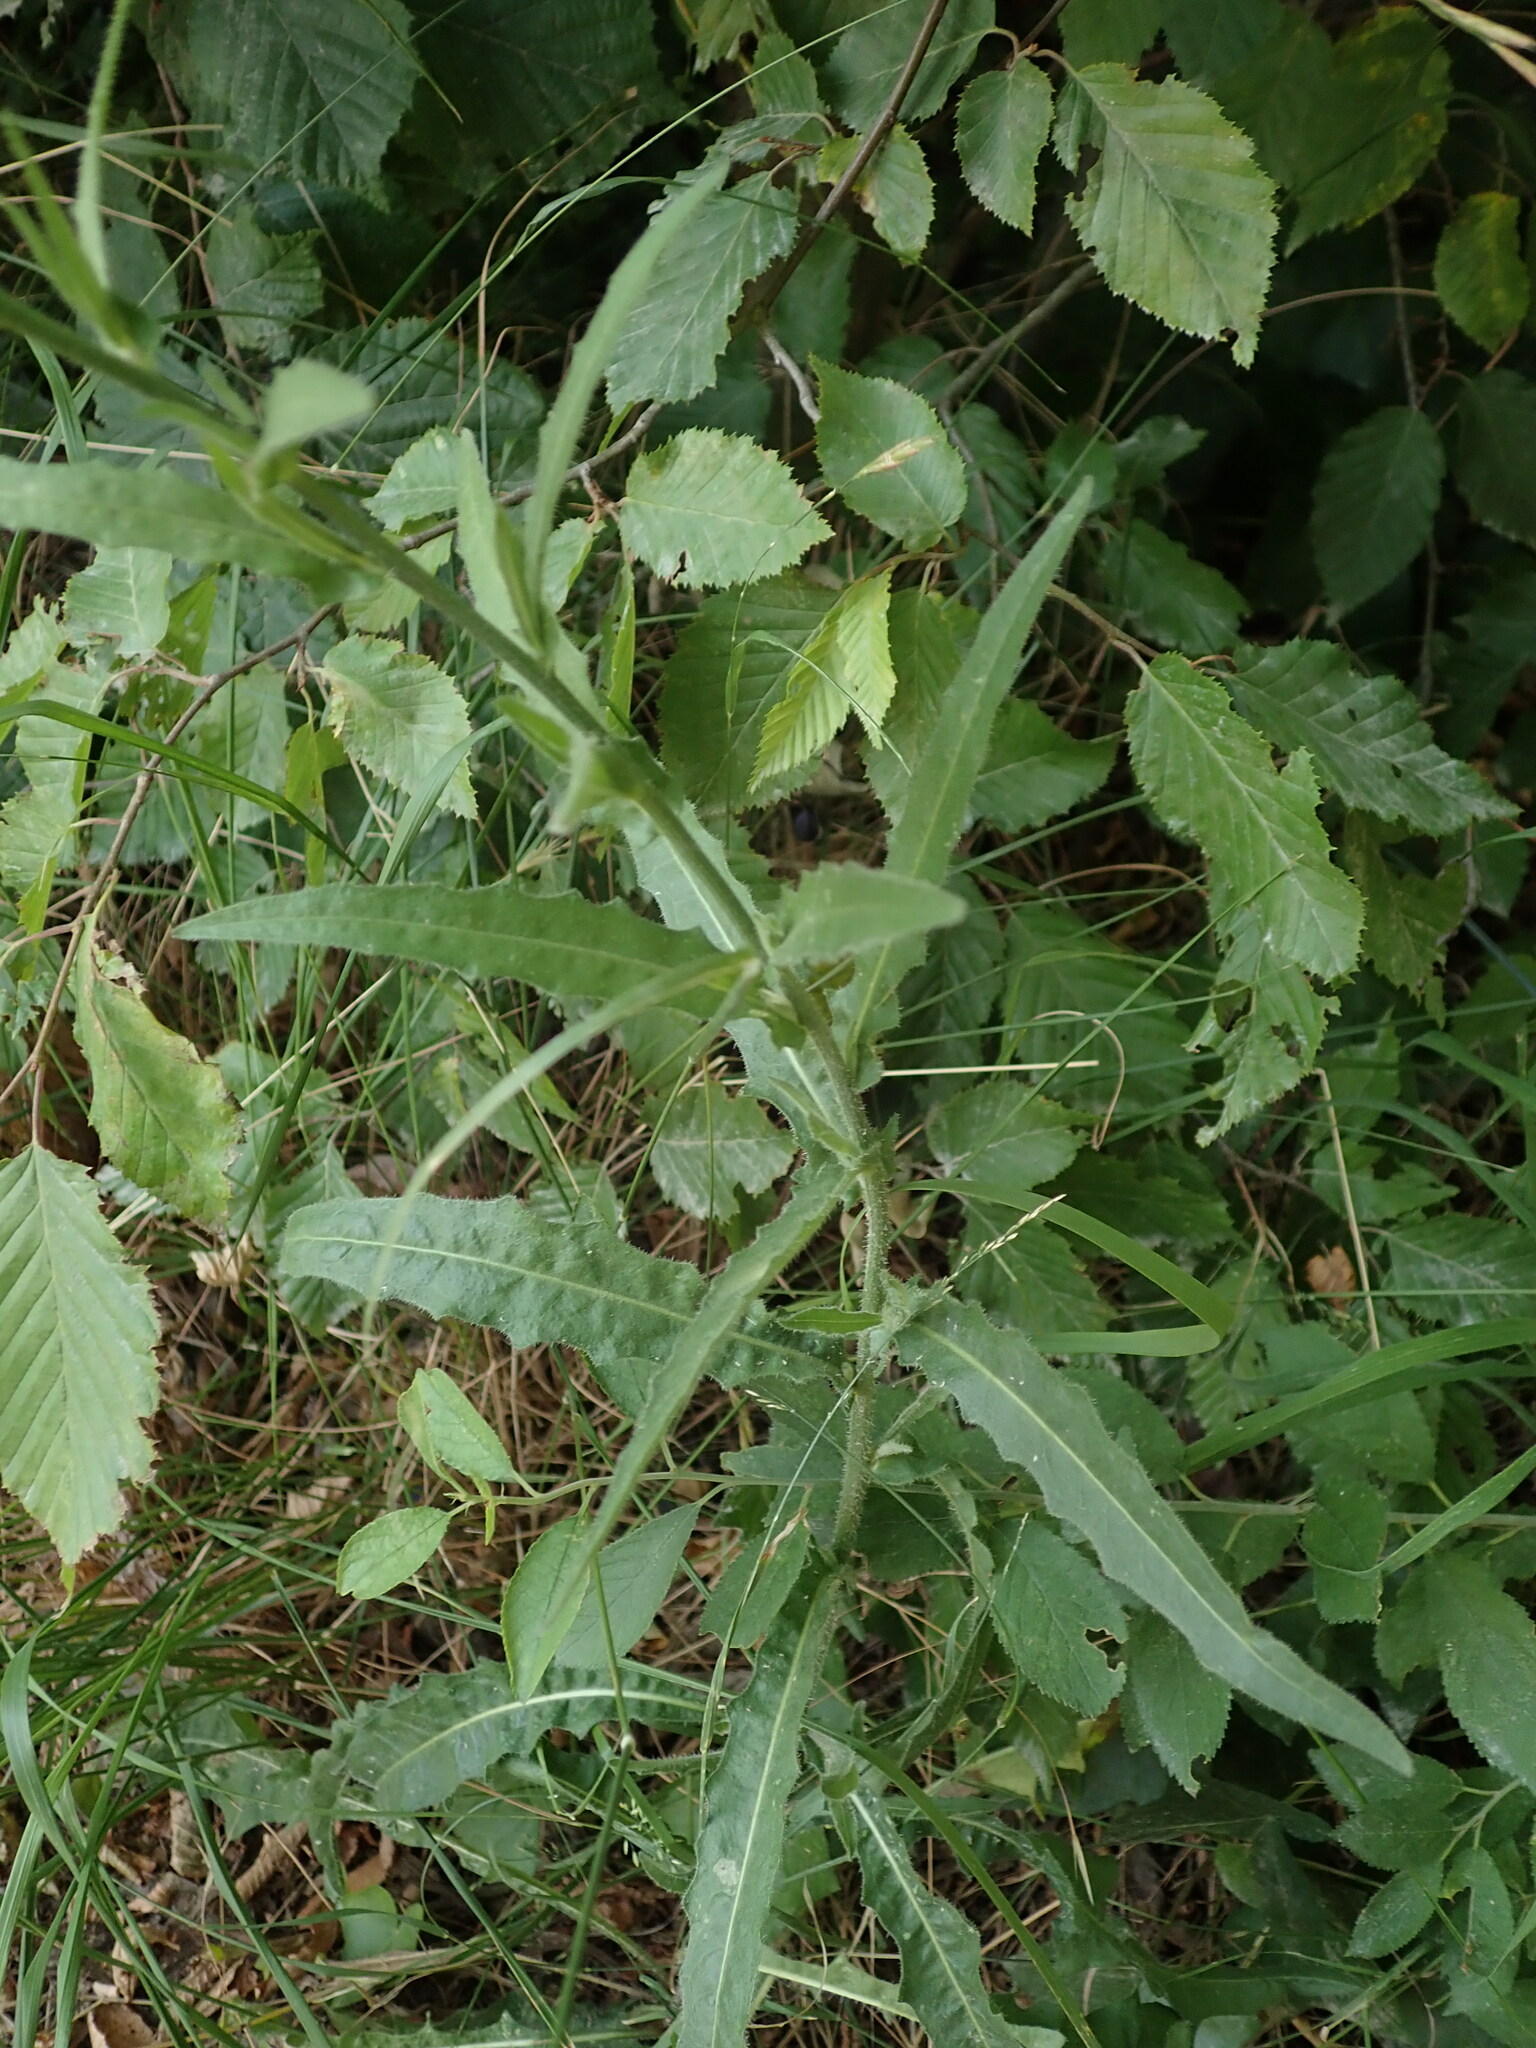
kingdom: Plantae
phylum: Tracheophyta
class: Magnoliopsida
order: Asterales
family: Asteraceae
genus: Picris
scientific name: Picris hieracioides
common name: Hawkweed oxtongue
